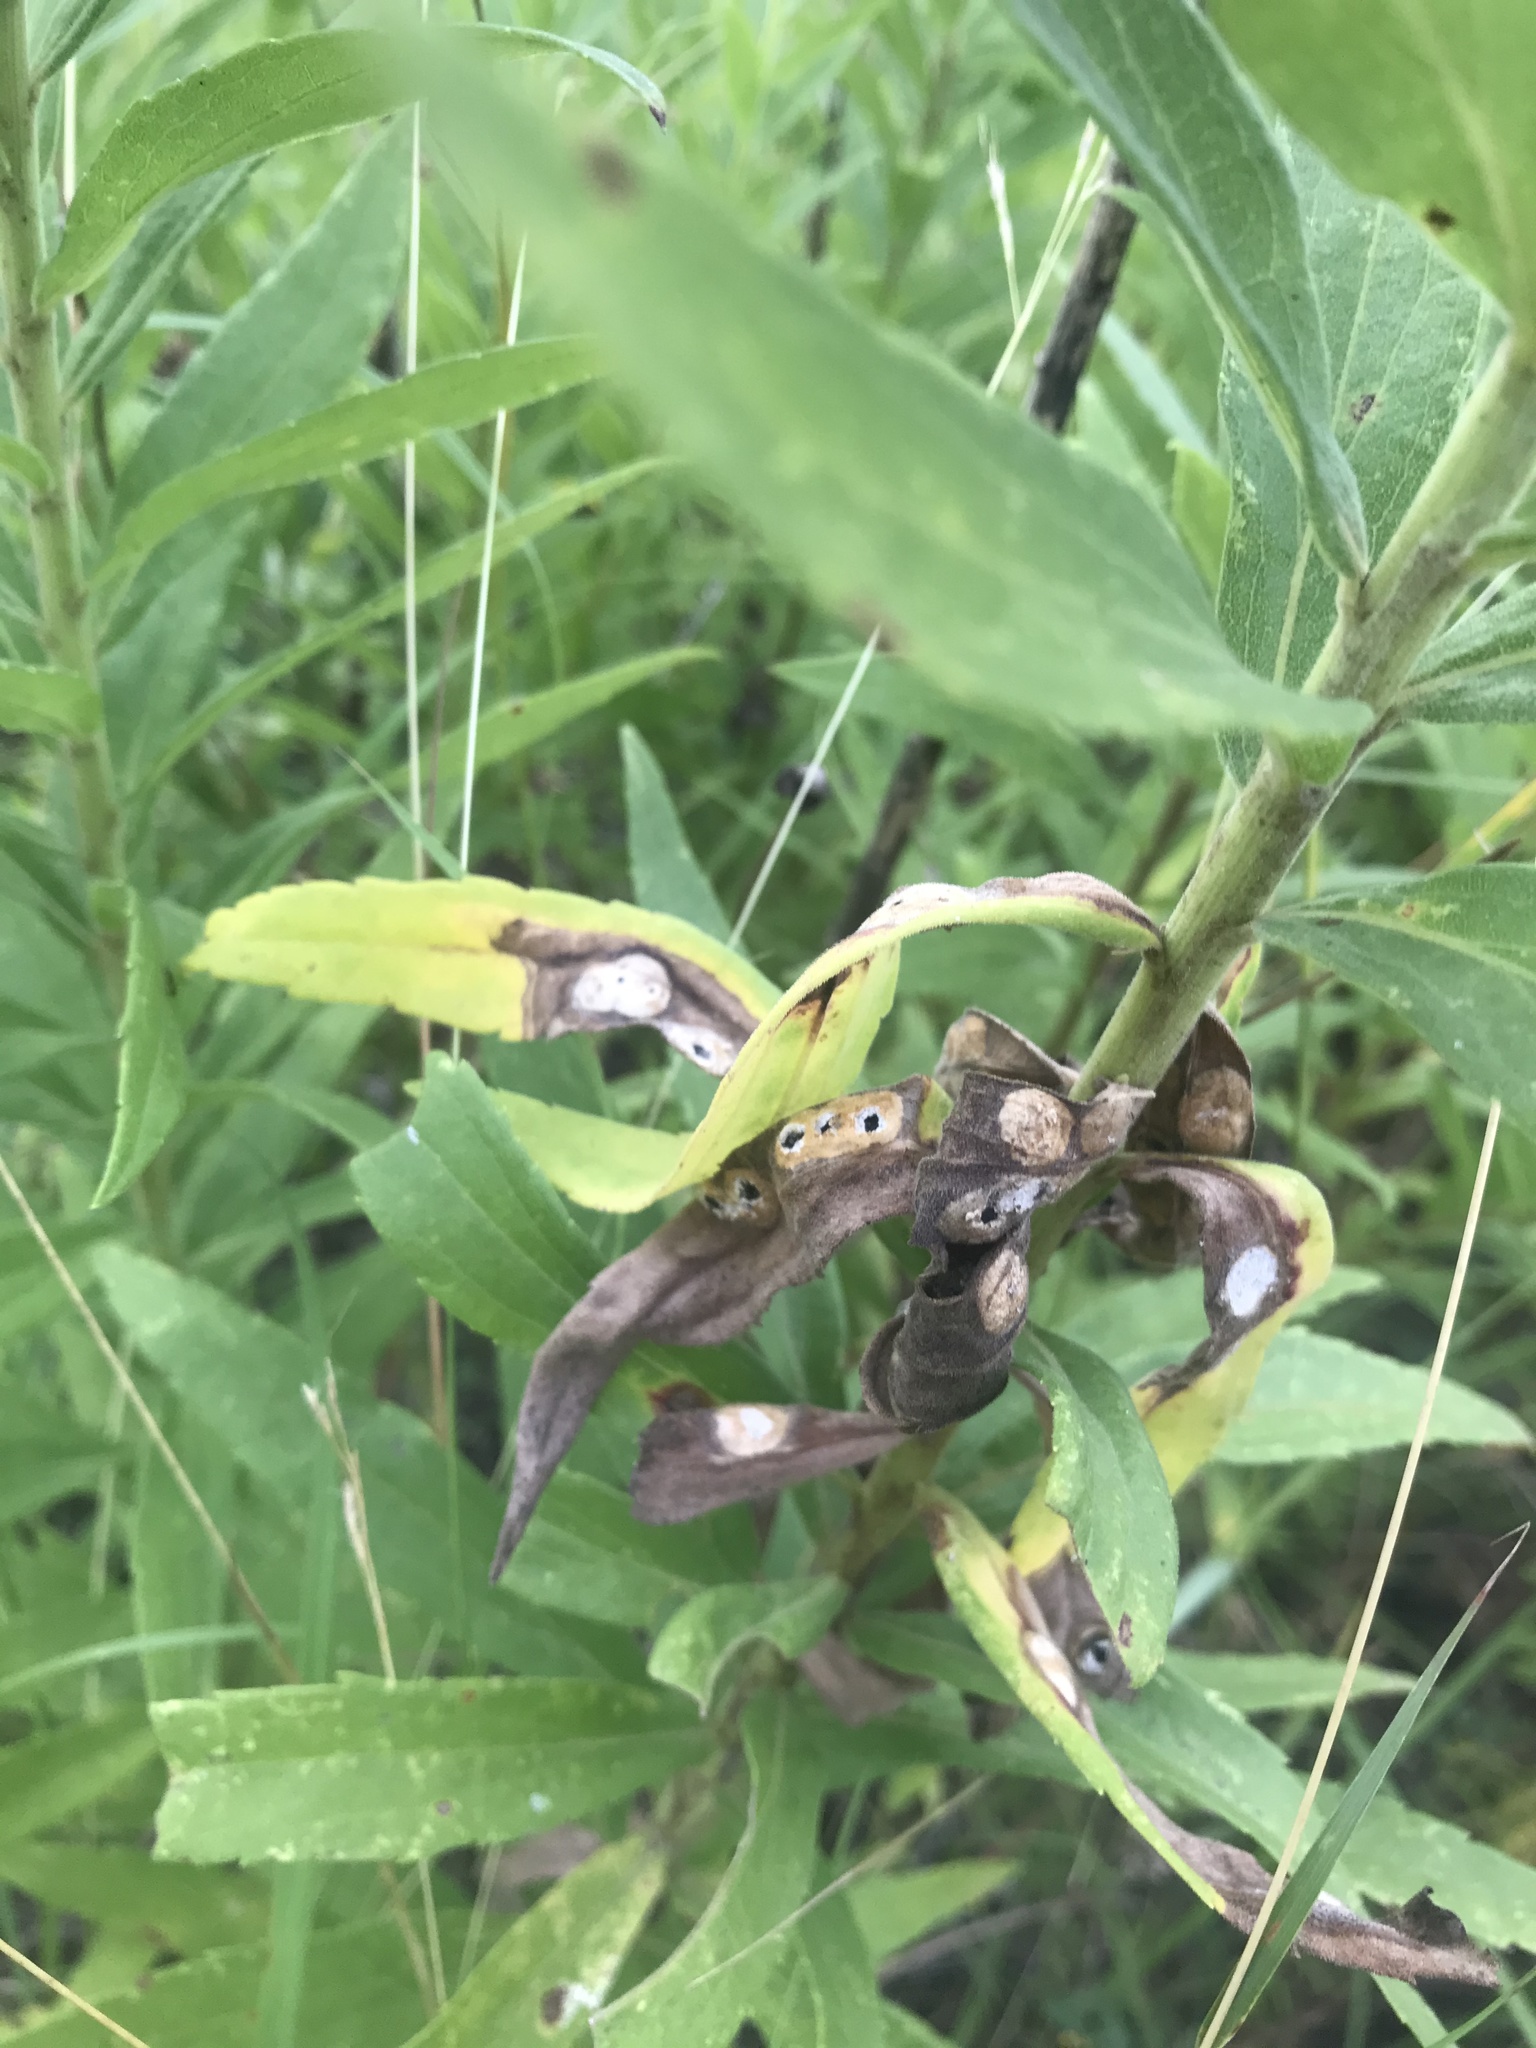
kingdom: Animalia
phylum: Arthropoda
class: Insecta
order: Diptera
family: Cecidomyiidae
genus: Asteromyia
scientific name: Asteromyia carbonifera
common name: Carbonifera goldenrod gall midge
